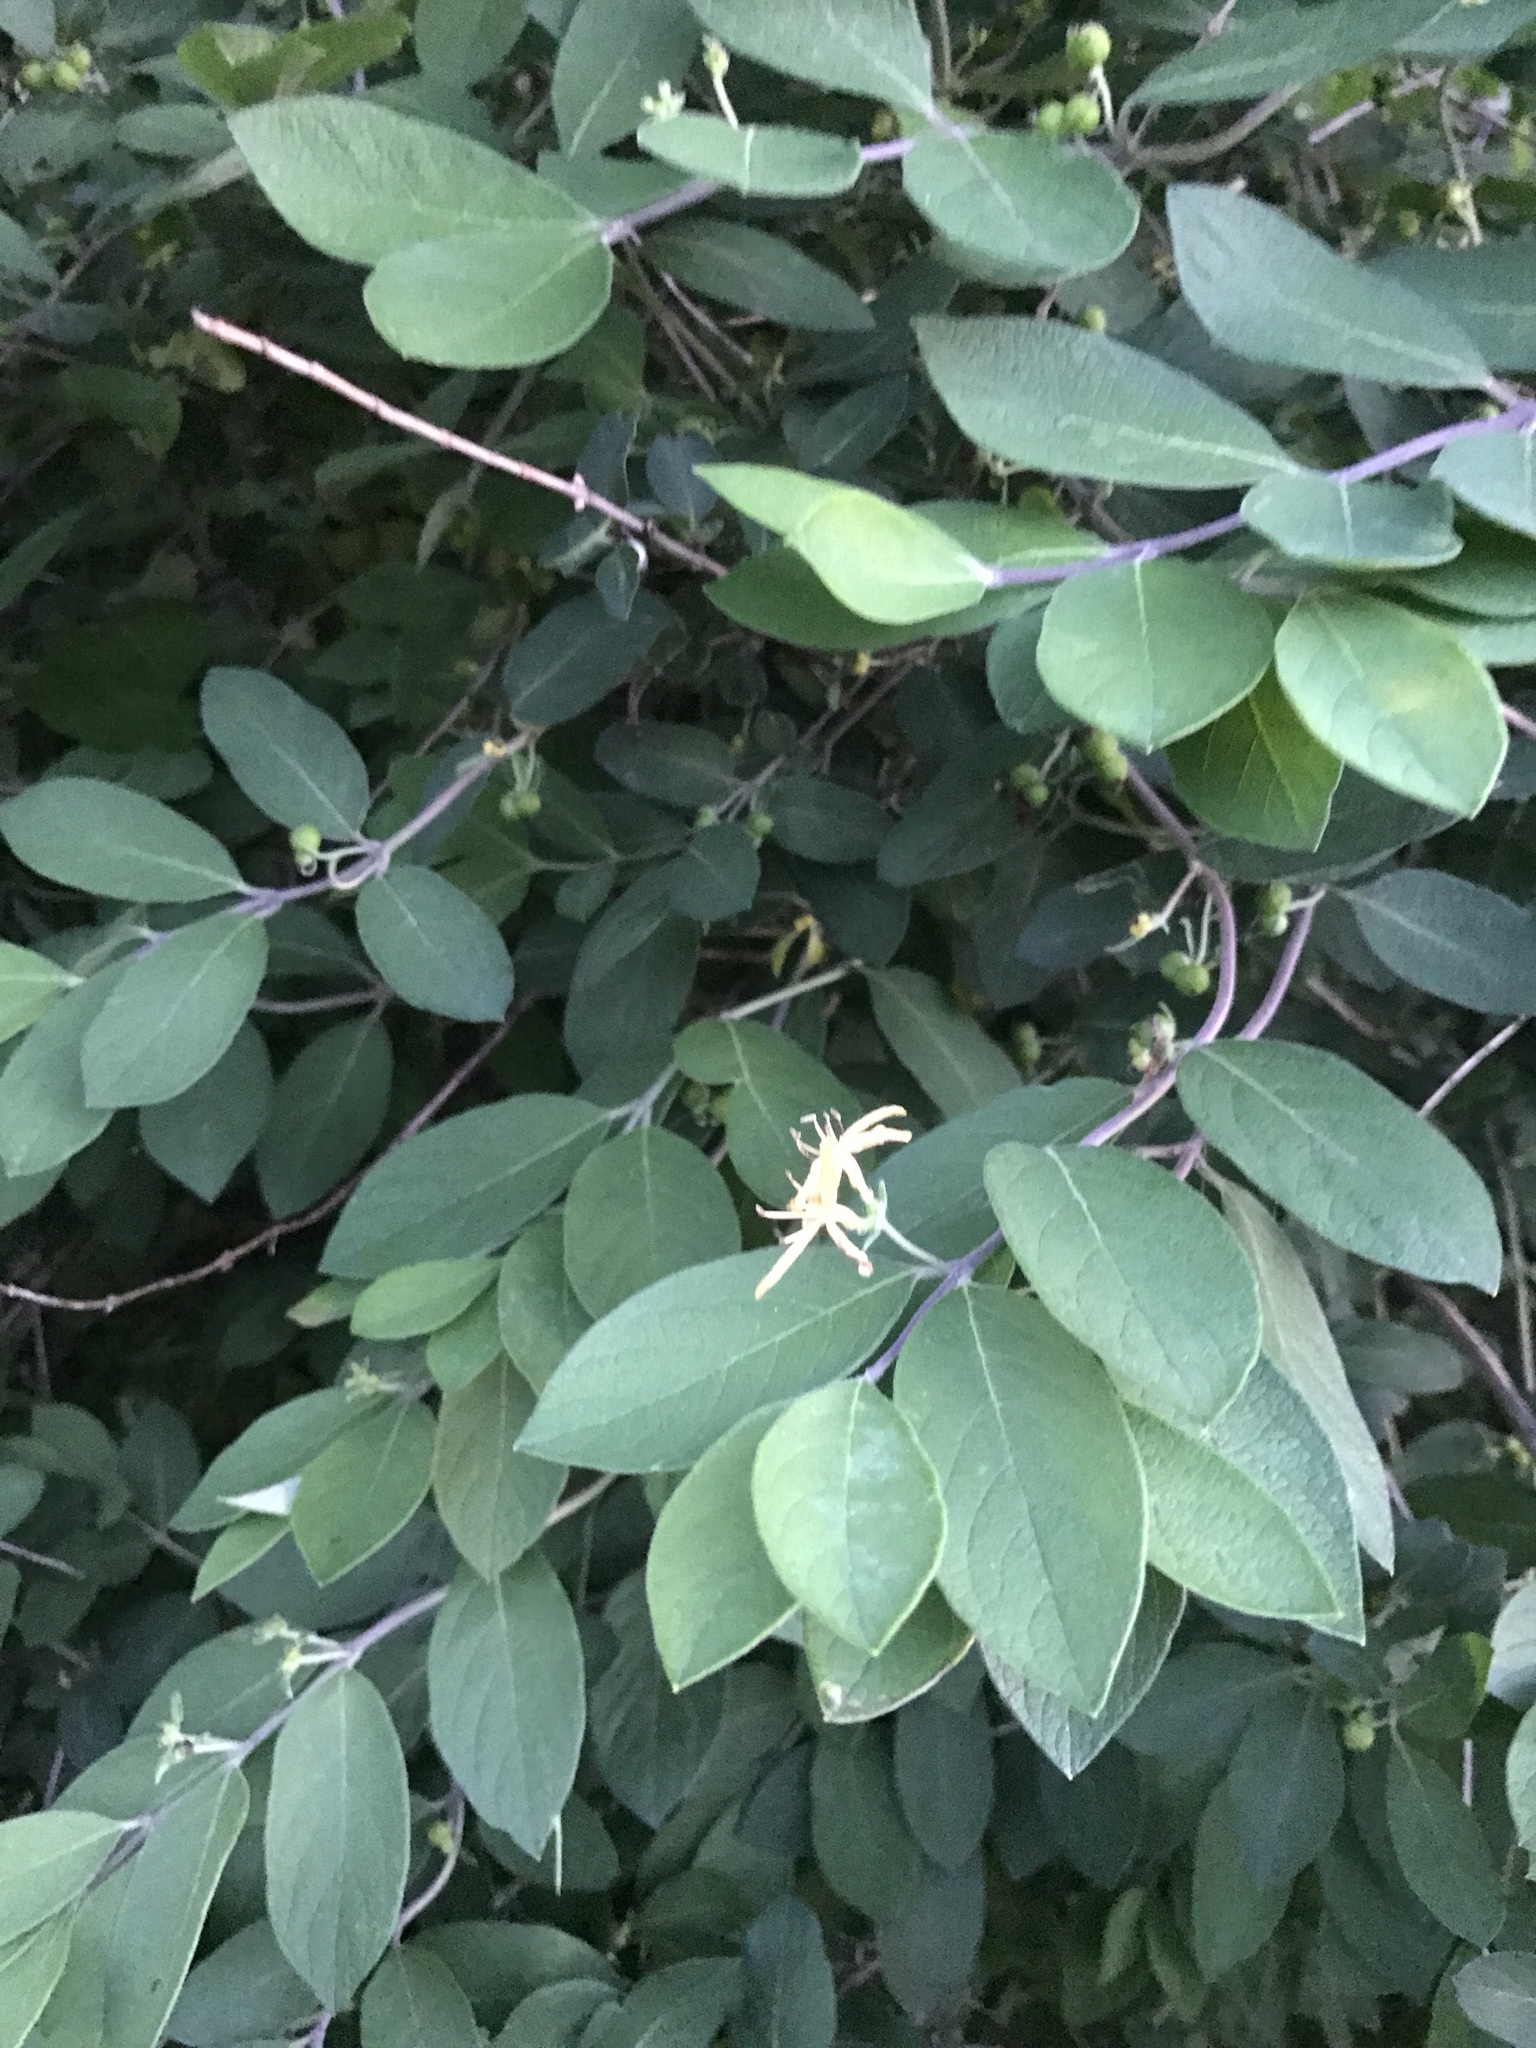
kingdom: Plantae
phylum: Tracheophyta
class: Magnoliopsida
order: Dipsacales
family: Caprifoliaceae
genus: Lonicera
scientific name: Lonicera morrowii
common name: Morrow's honeysuckle
